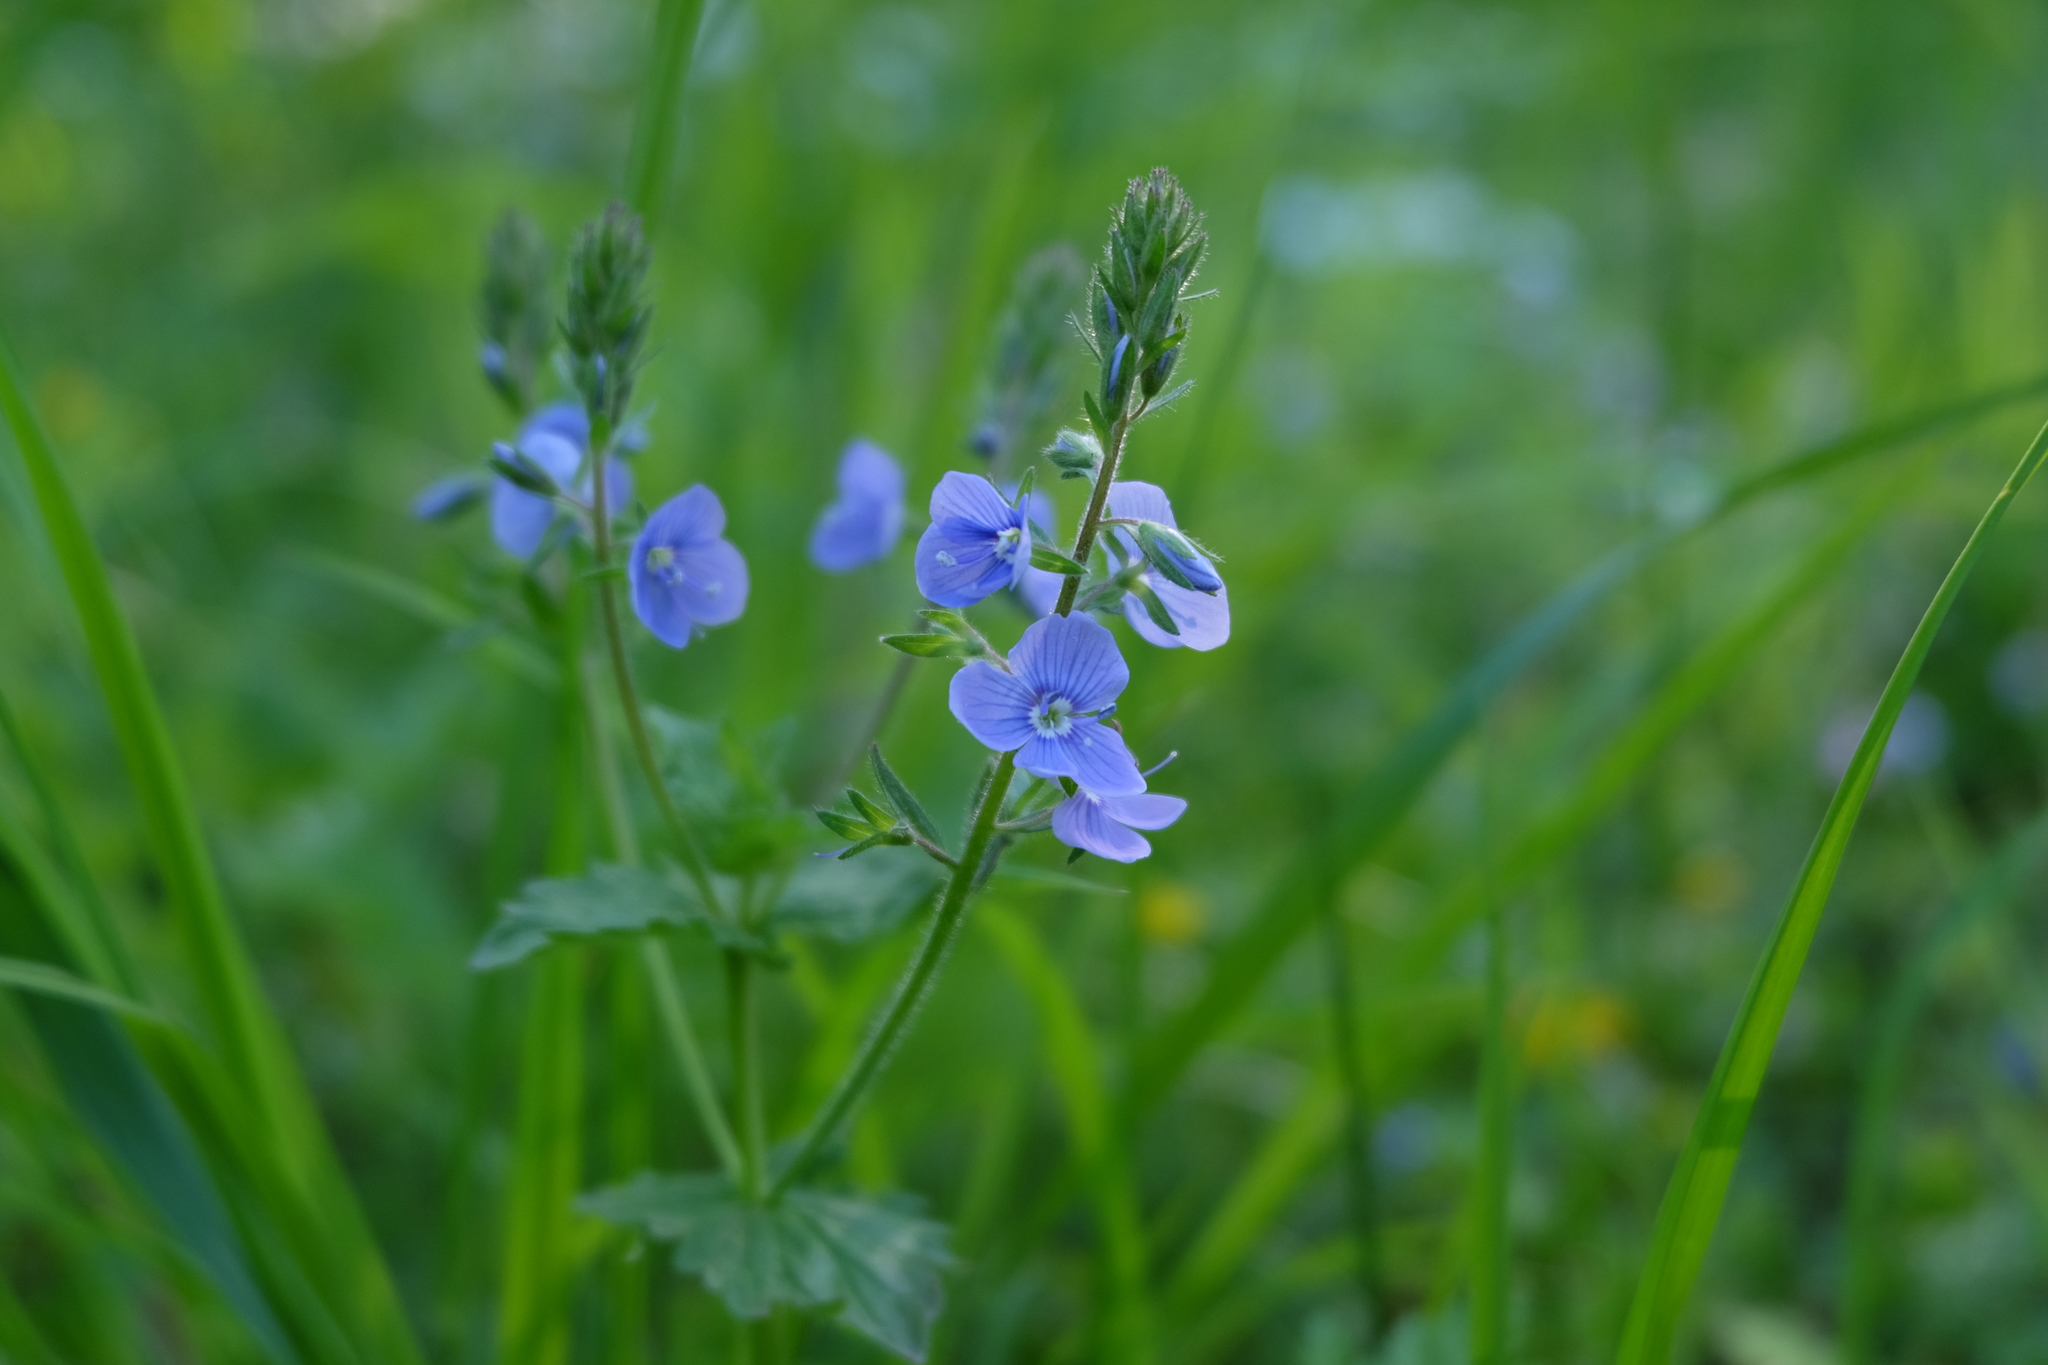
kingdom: Plantae
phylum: Tracheophyta
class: Magnoliopsida
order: Lamiales
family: Plantaginaceae
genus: Veronica
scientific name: Veronica chamaedrys
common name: Germander speedwell
